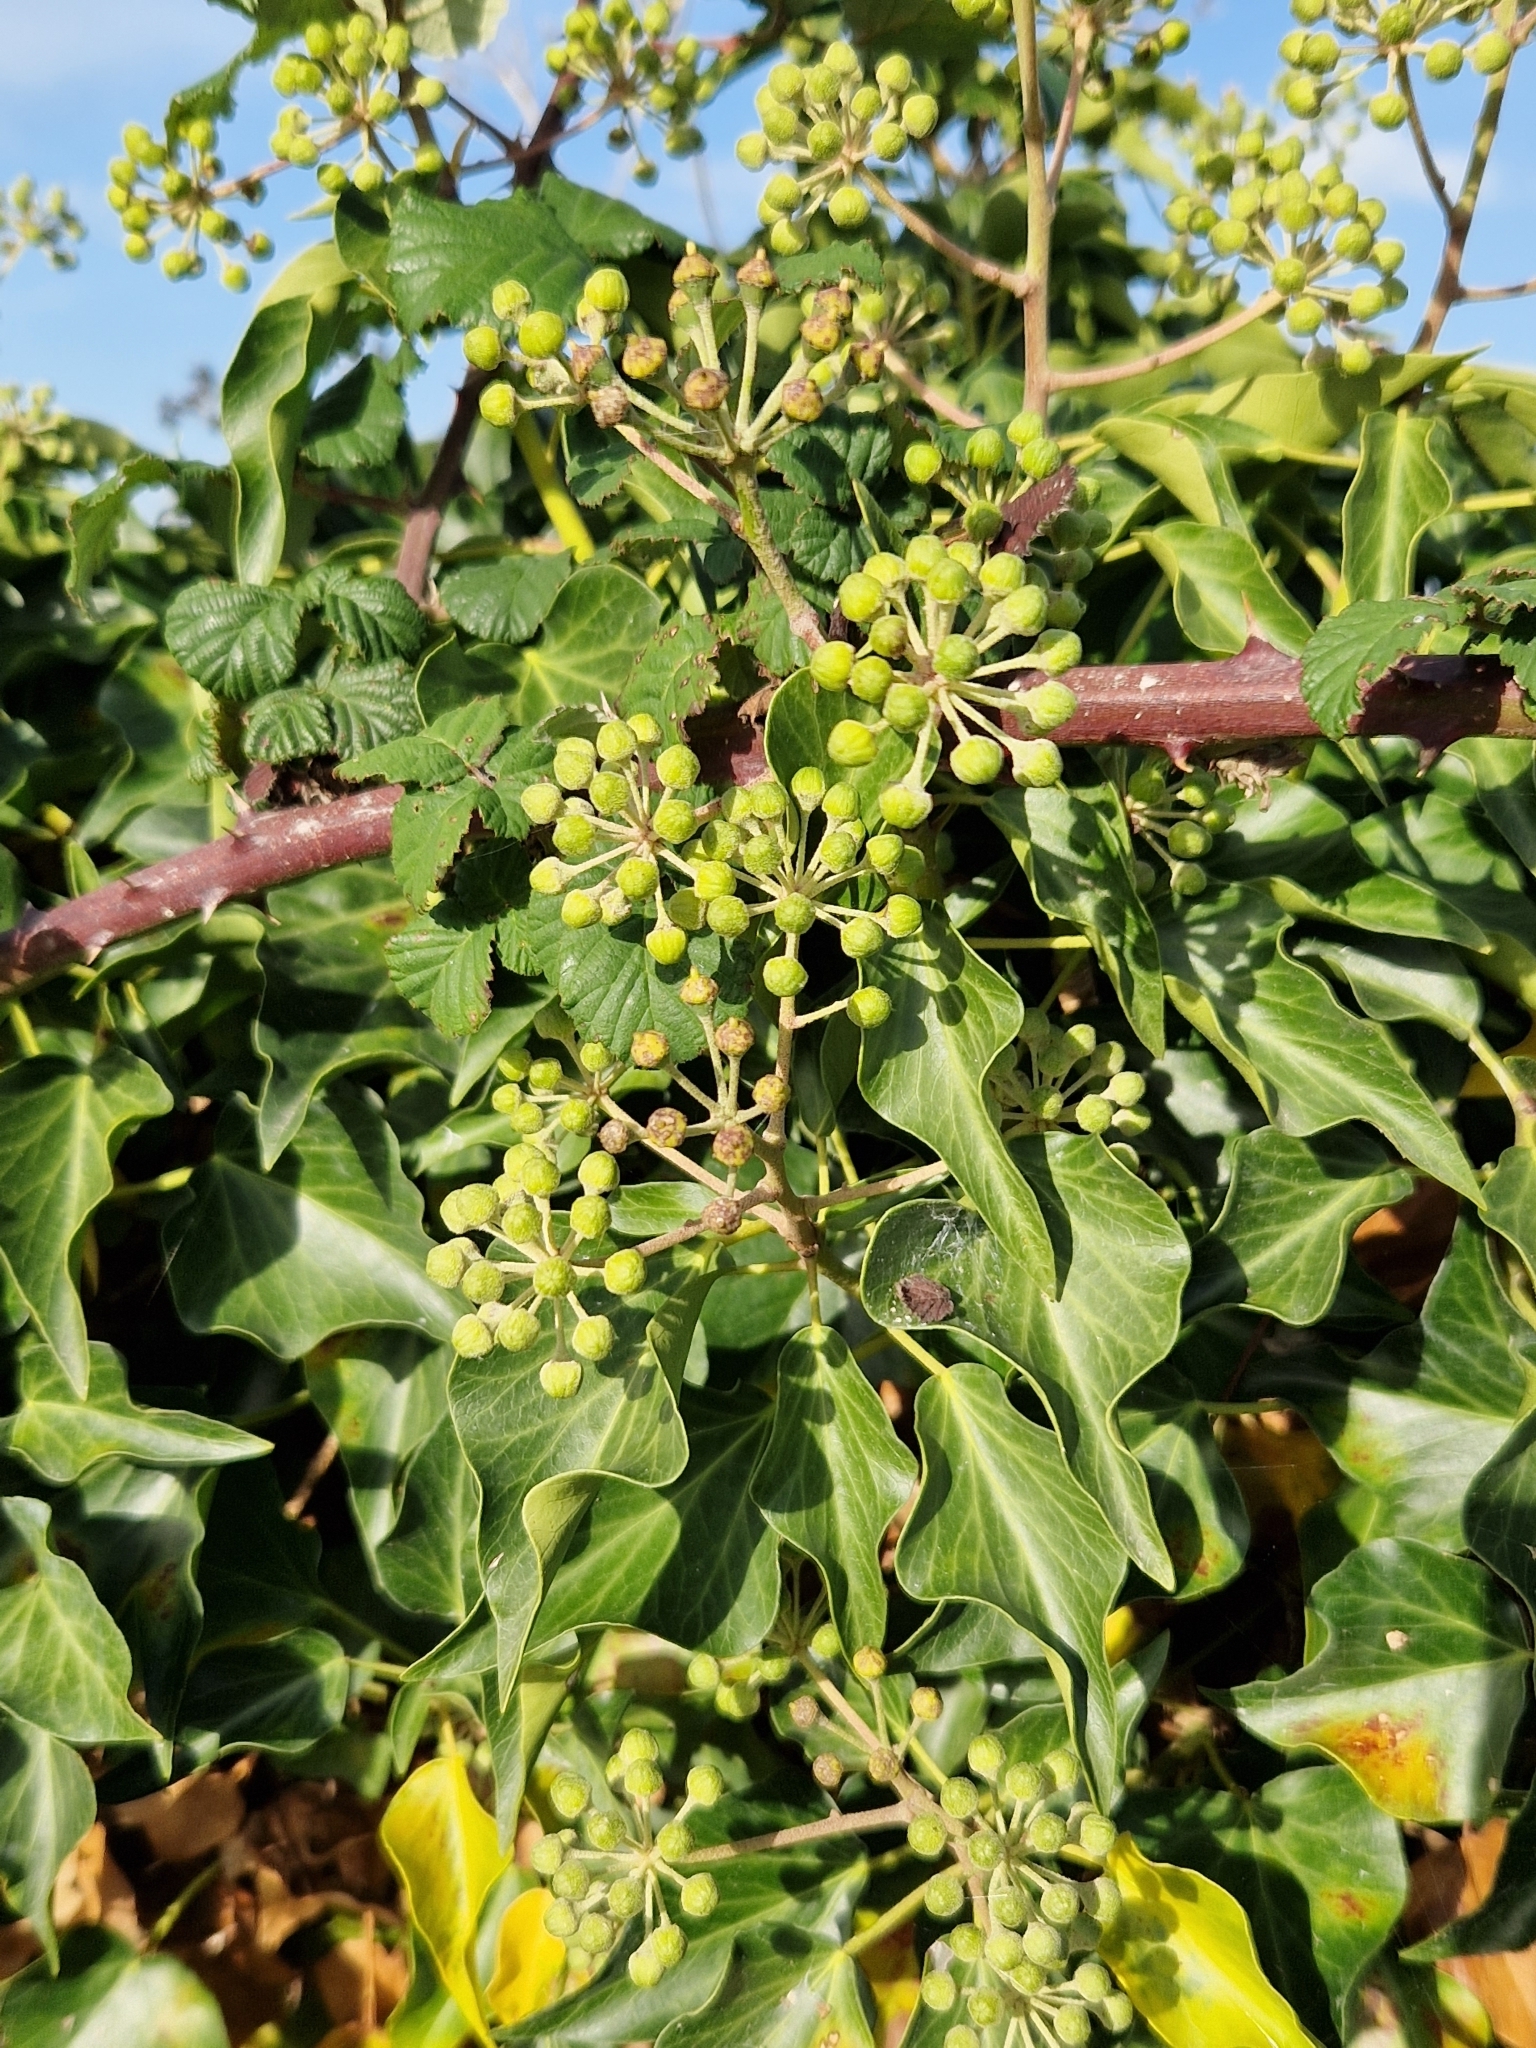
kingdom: Plantae
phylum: Tracheophyta
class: Magnoliopsida
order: Apiales
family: Araliaceae
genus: Hedera
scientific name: Hedera helix
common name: Ivy
